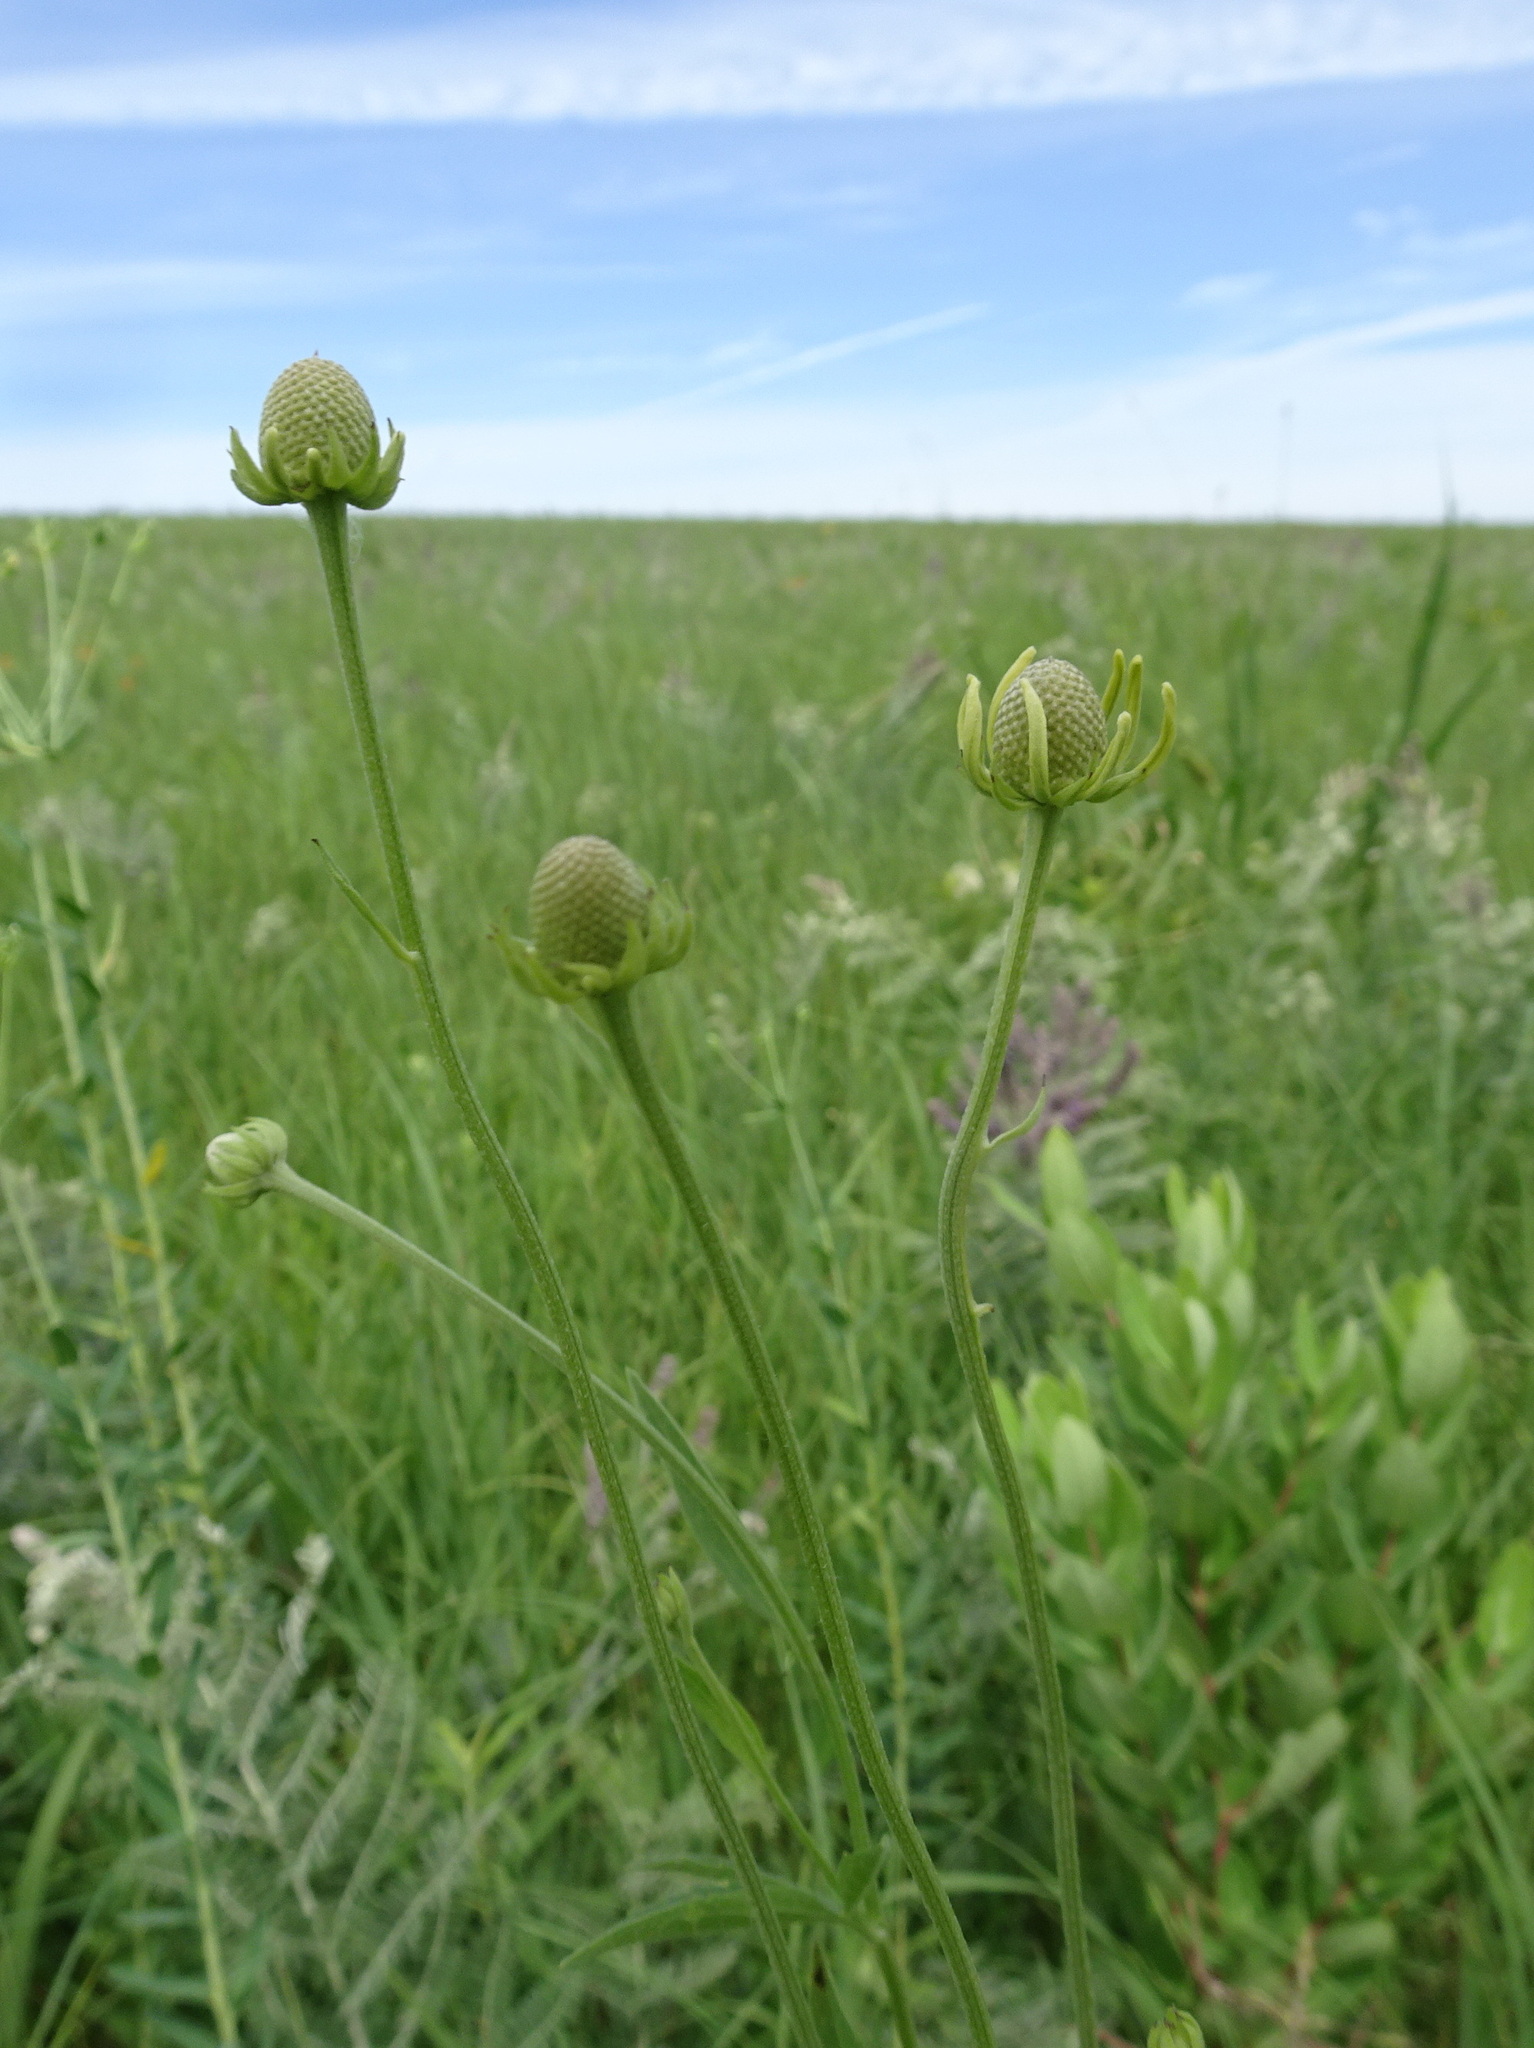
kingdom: Plantae
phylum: Tracheophyta
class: Magnoliopsida
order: Asterales
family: Asteraceae
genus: Ratibida
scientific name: Ratibida pinnata
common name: Drooping prairie-coneflower
